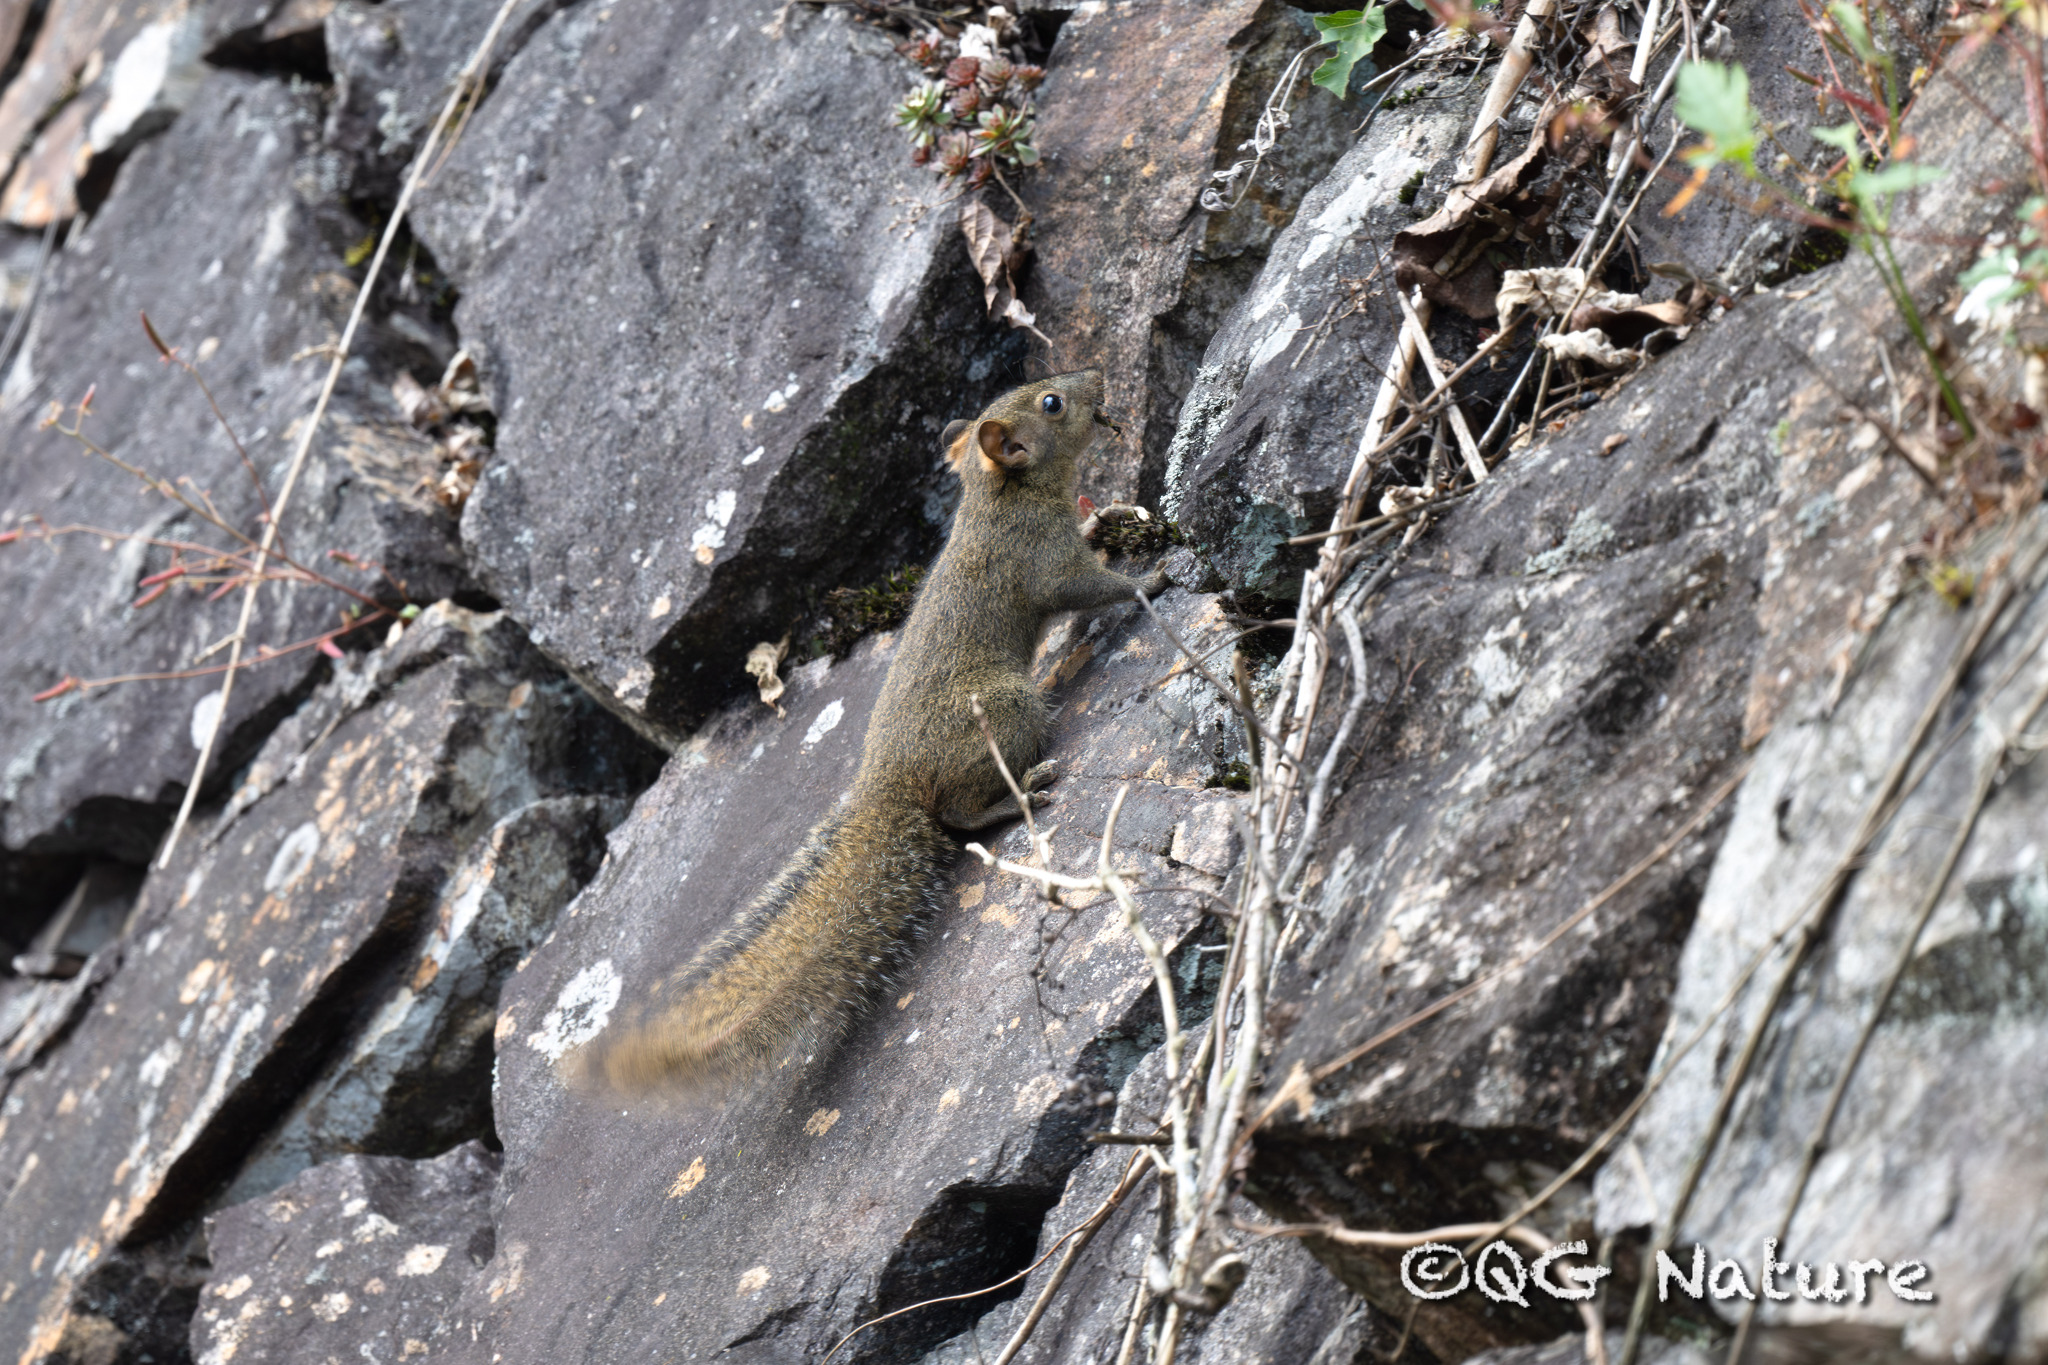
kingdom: Animalia
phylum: Chordata
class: Mammalia
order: Rodentia
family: Sciuridae
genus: Dremomys
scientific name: Dremomys pernyi
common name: Perny's long-nosed squirrel
